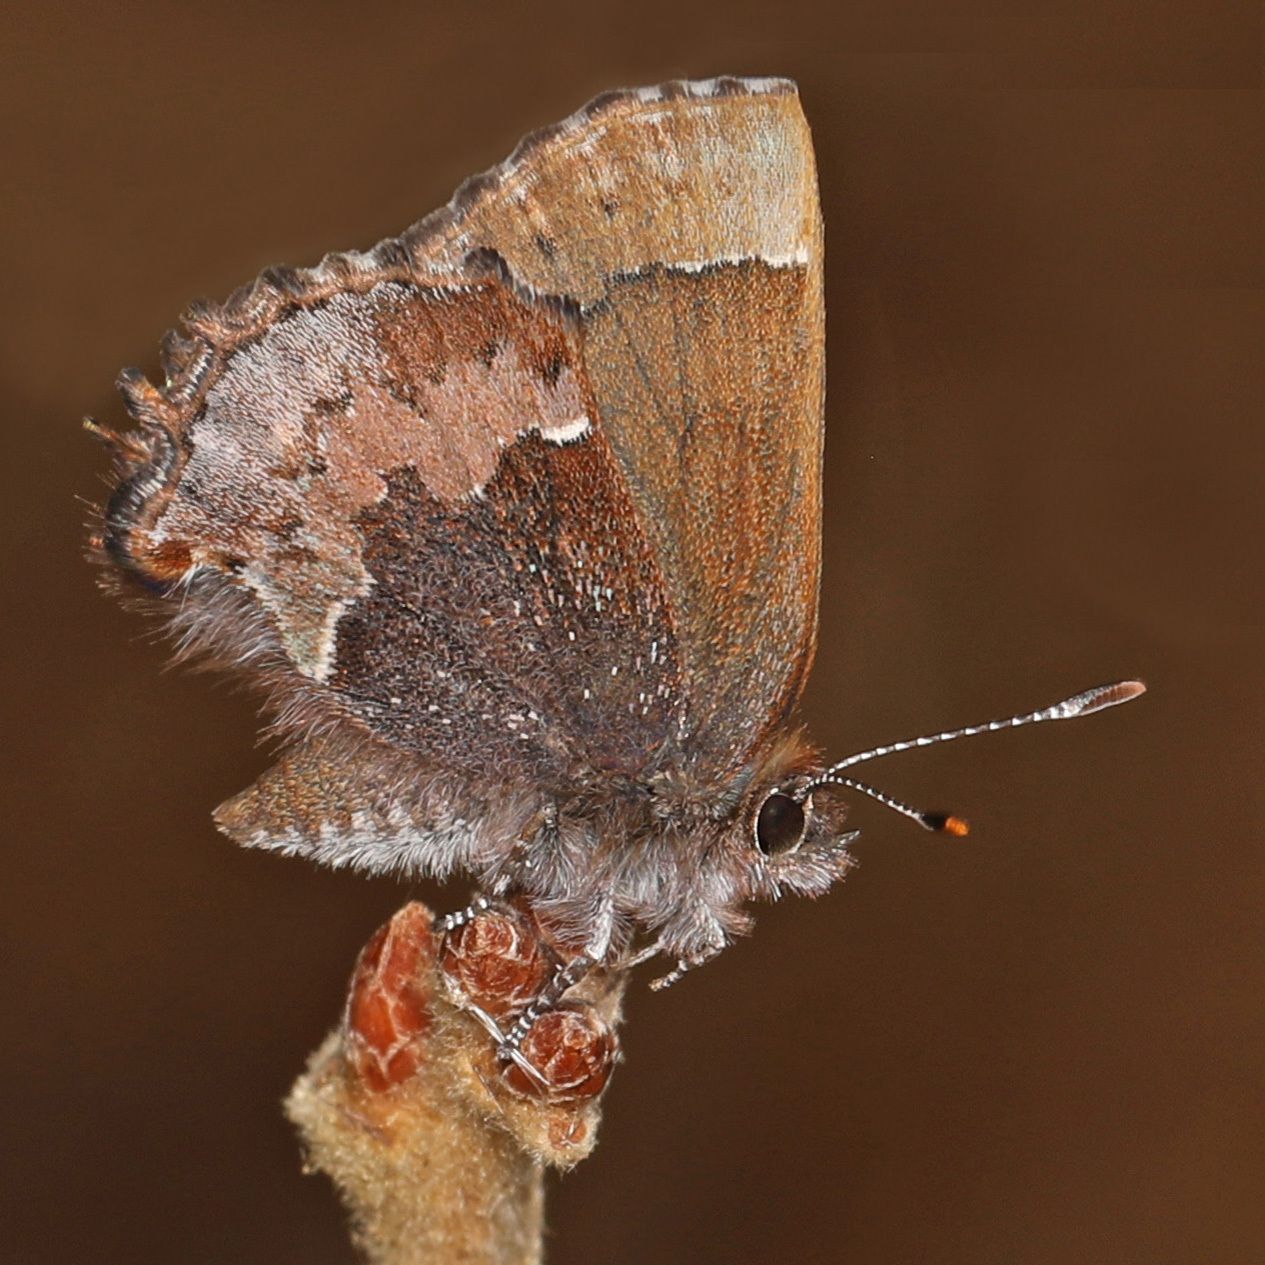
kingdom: Animalia
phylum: Arthropoda
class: Insecta
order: Lepidoptera
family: Lycaenidae
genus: Incisalia
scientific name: Incisalia henrici
